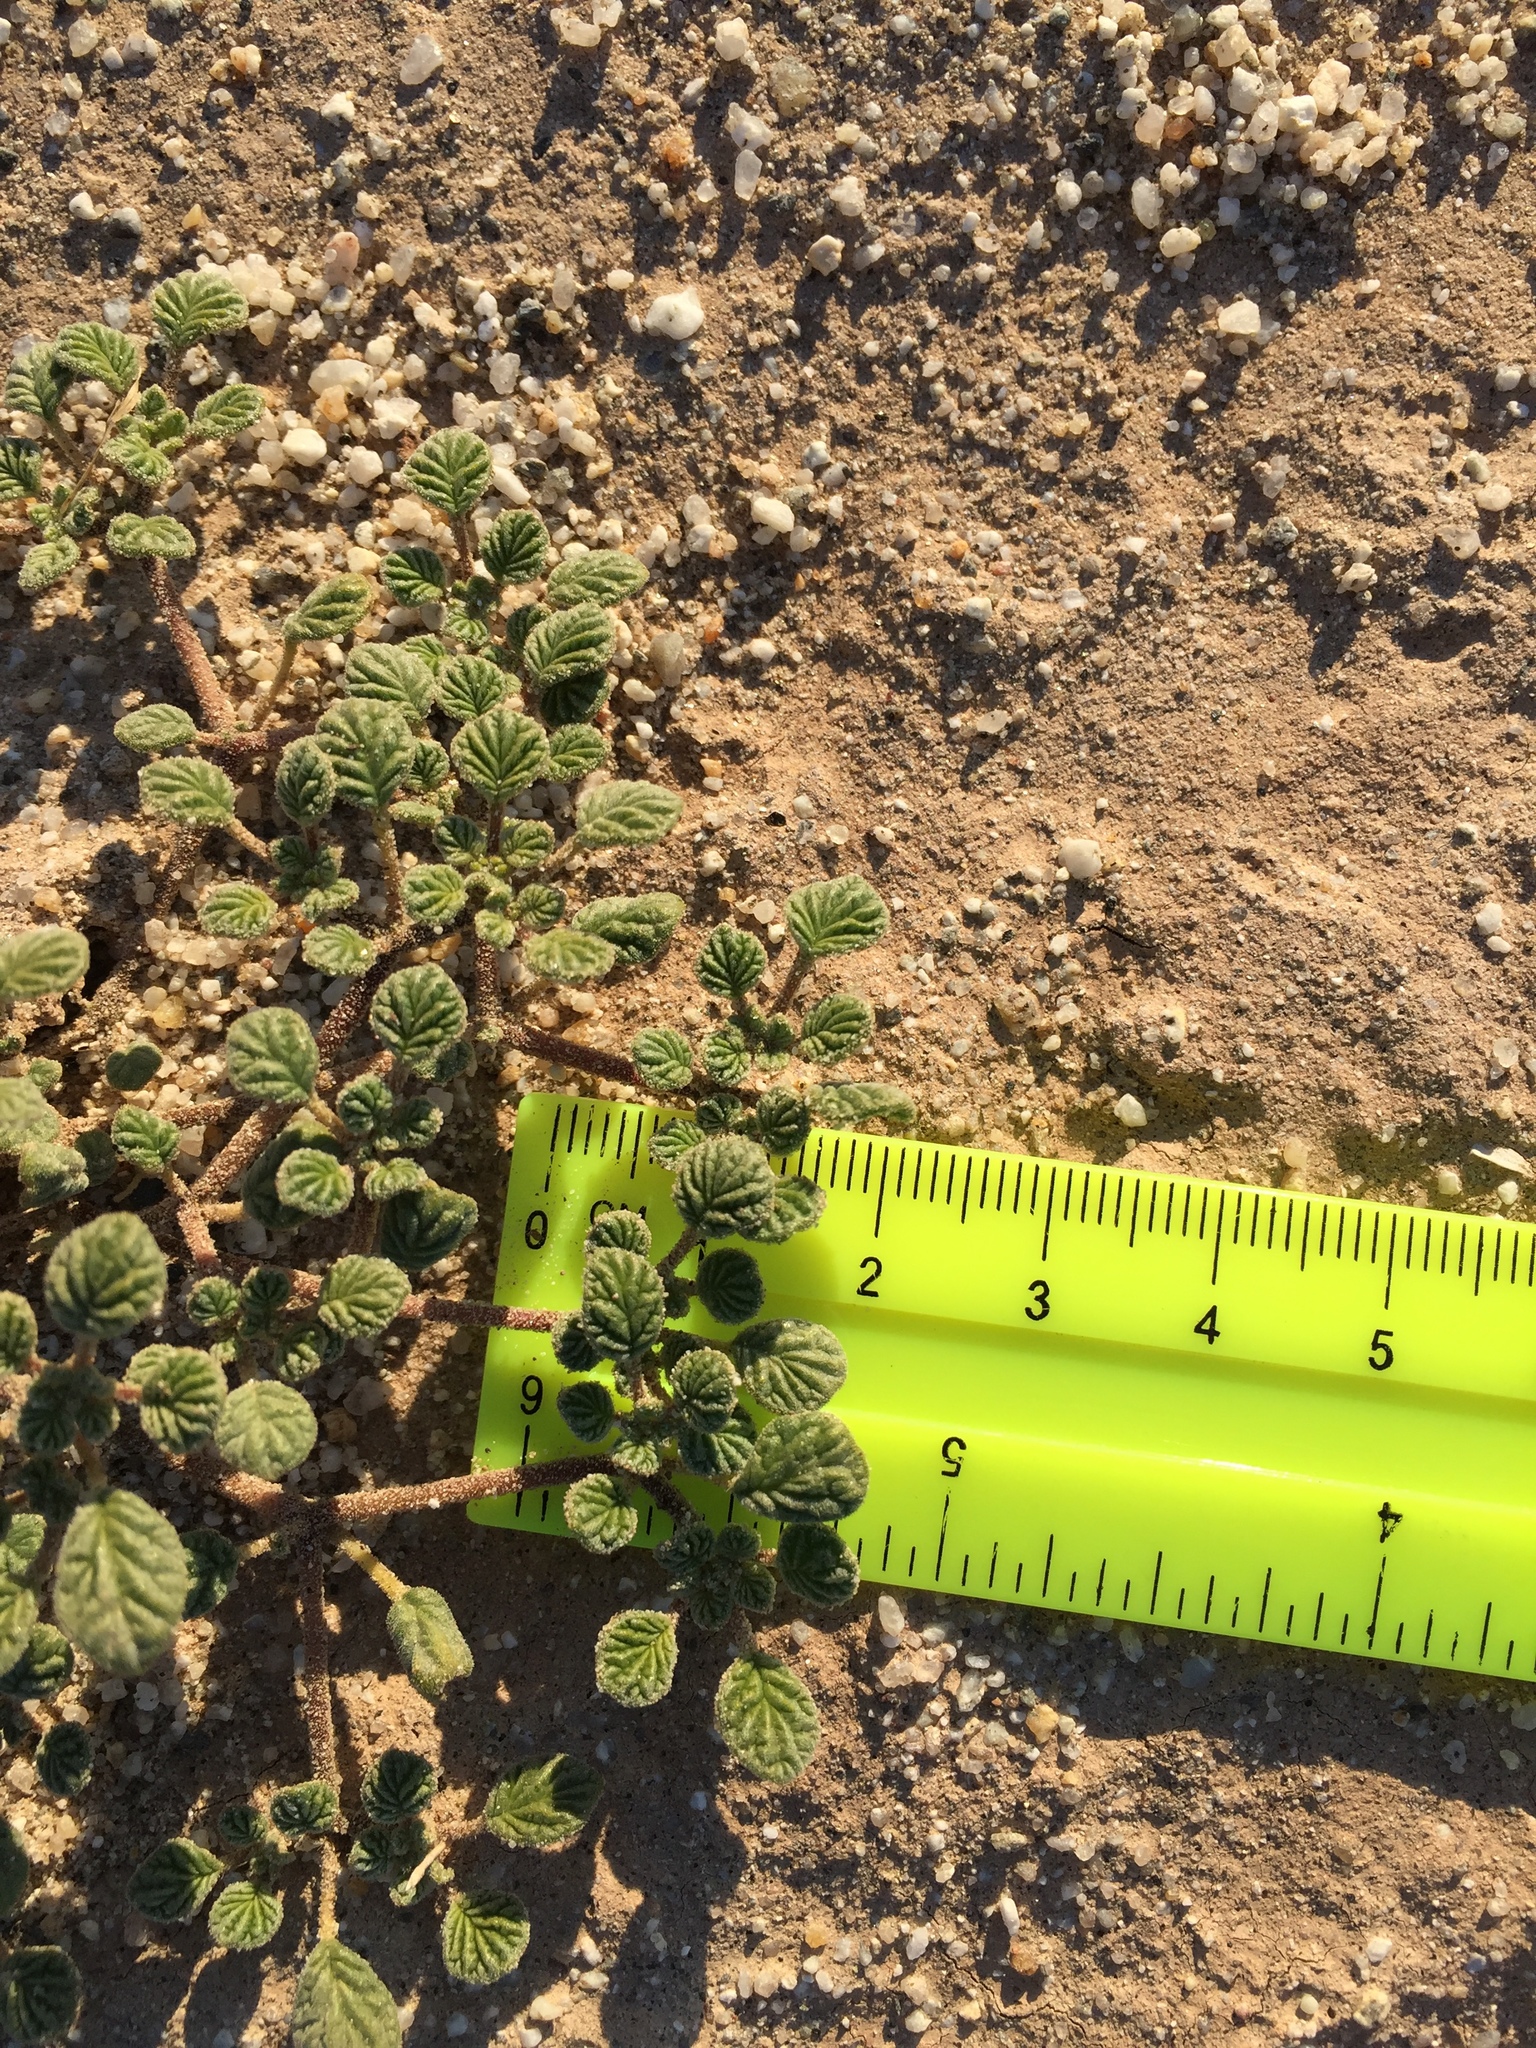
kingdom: Plantae
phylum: Tracheophyta
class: Magnoliopsida
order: Boraginales
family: Ehretiaceae
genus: Tiquilia
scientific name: Tiquilia plicata
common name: Fan-leaf tiquilia
